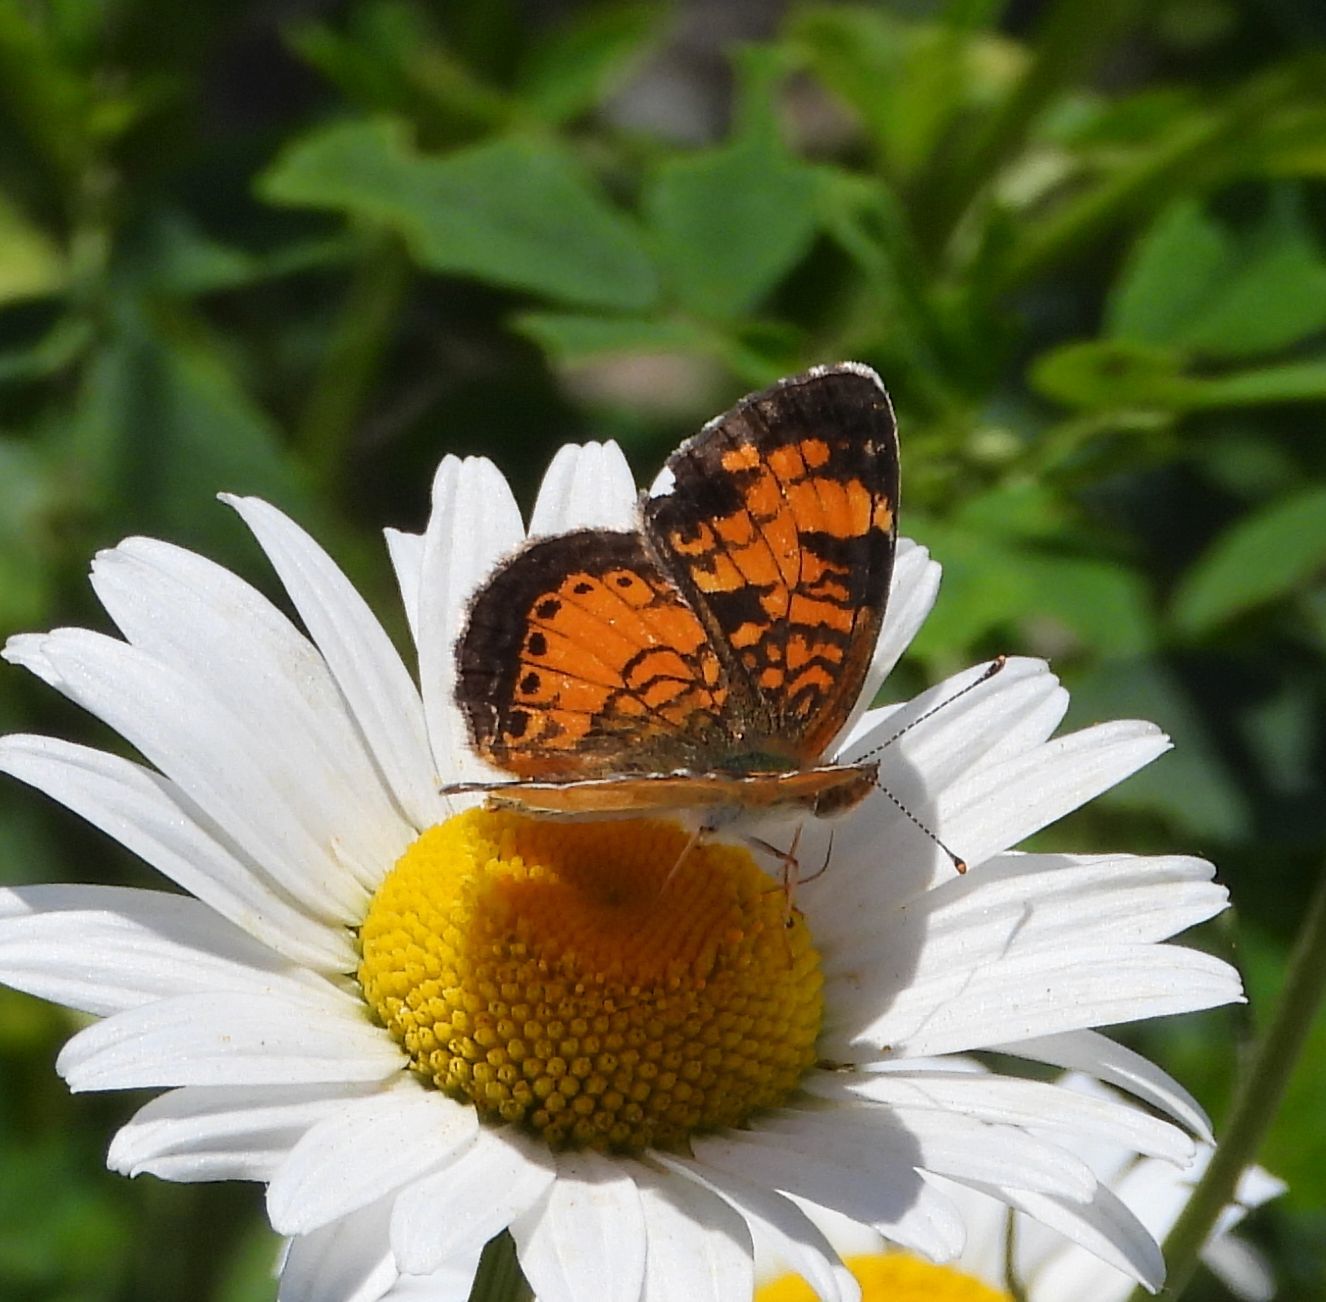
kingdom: Animalia
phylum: Arthropoda
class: Insecta
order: Lepidoptera
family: Nymphalidae
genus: Phyciodes
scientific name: Phyciodes tharos
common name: Pearl crescent
